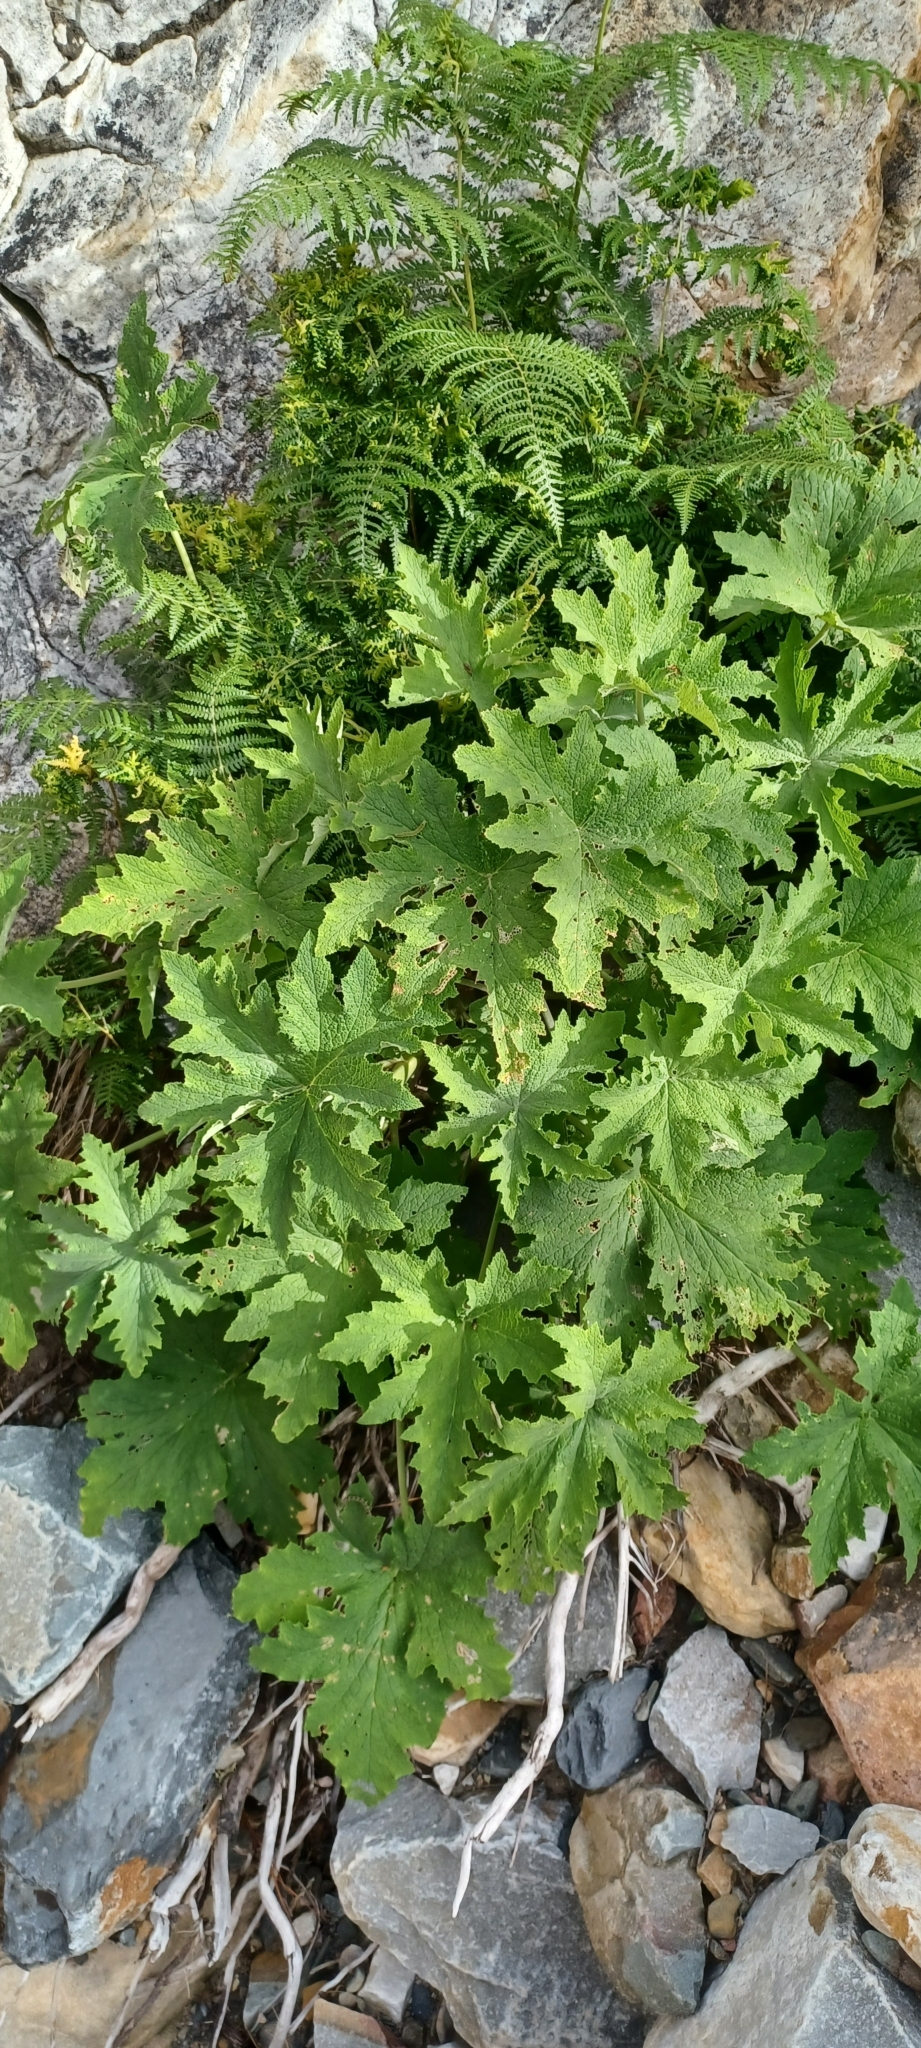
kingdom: Plantae
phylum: Tracheophyta
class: Magnoliopsida
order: Geraniales
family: Geraniaceae
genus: Pelargonium
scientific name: Pelargonium hispidum
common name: Hispid pelargonium
